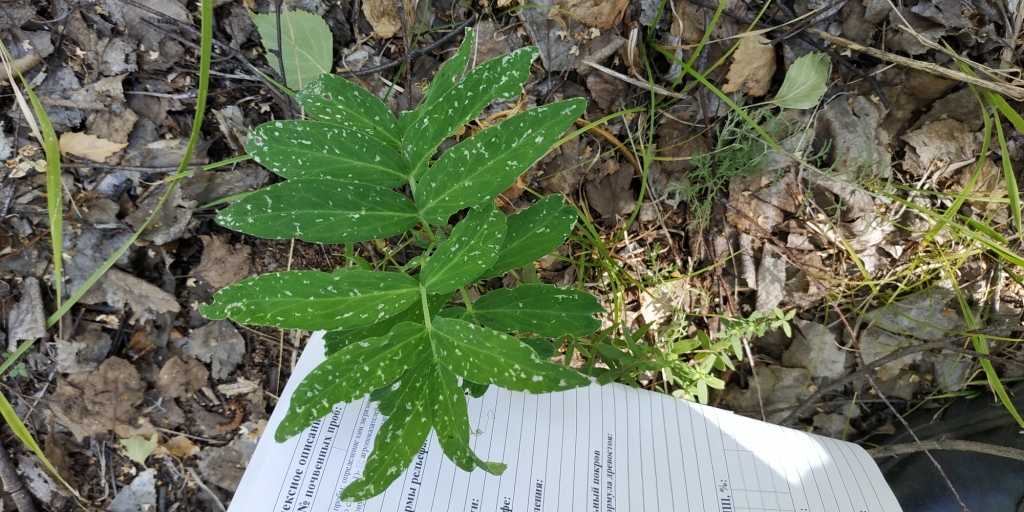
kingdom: Plantae
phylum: Tracheophyta
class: Magnoliopsida
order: Fabales
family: Fabaceae
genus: Lathyrus
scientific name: Lathyrus pisiformis
